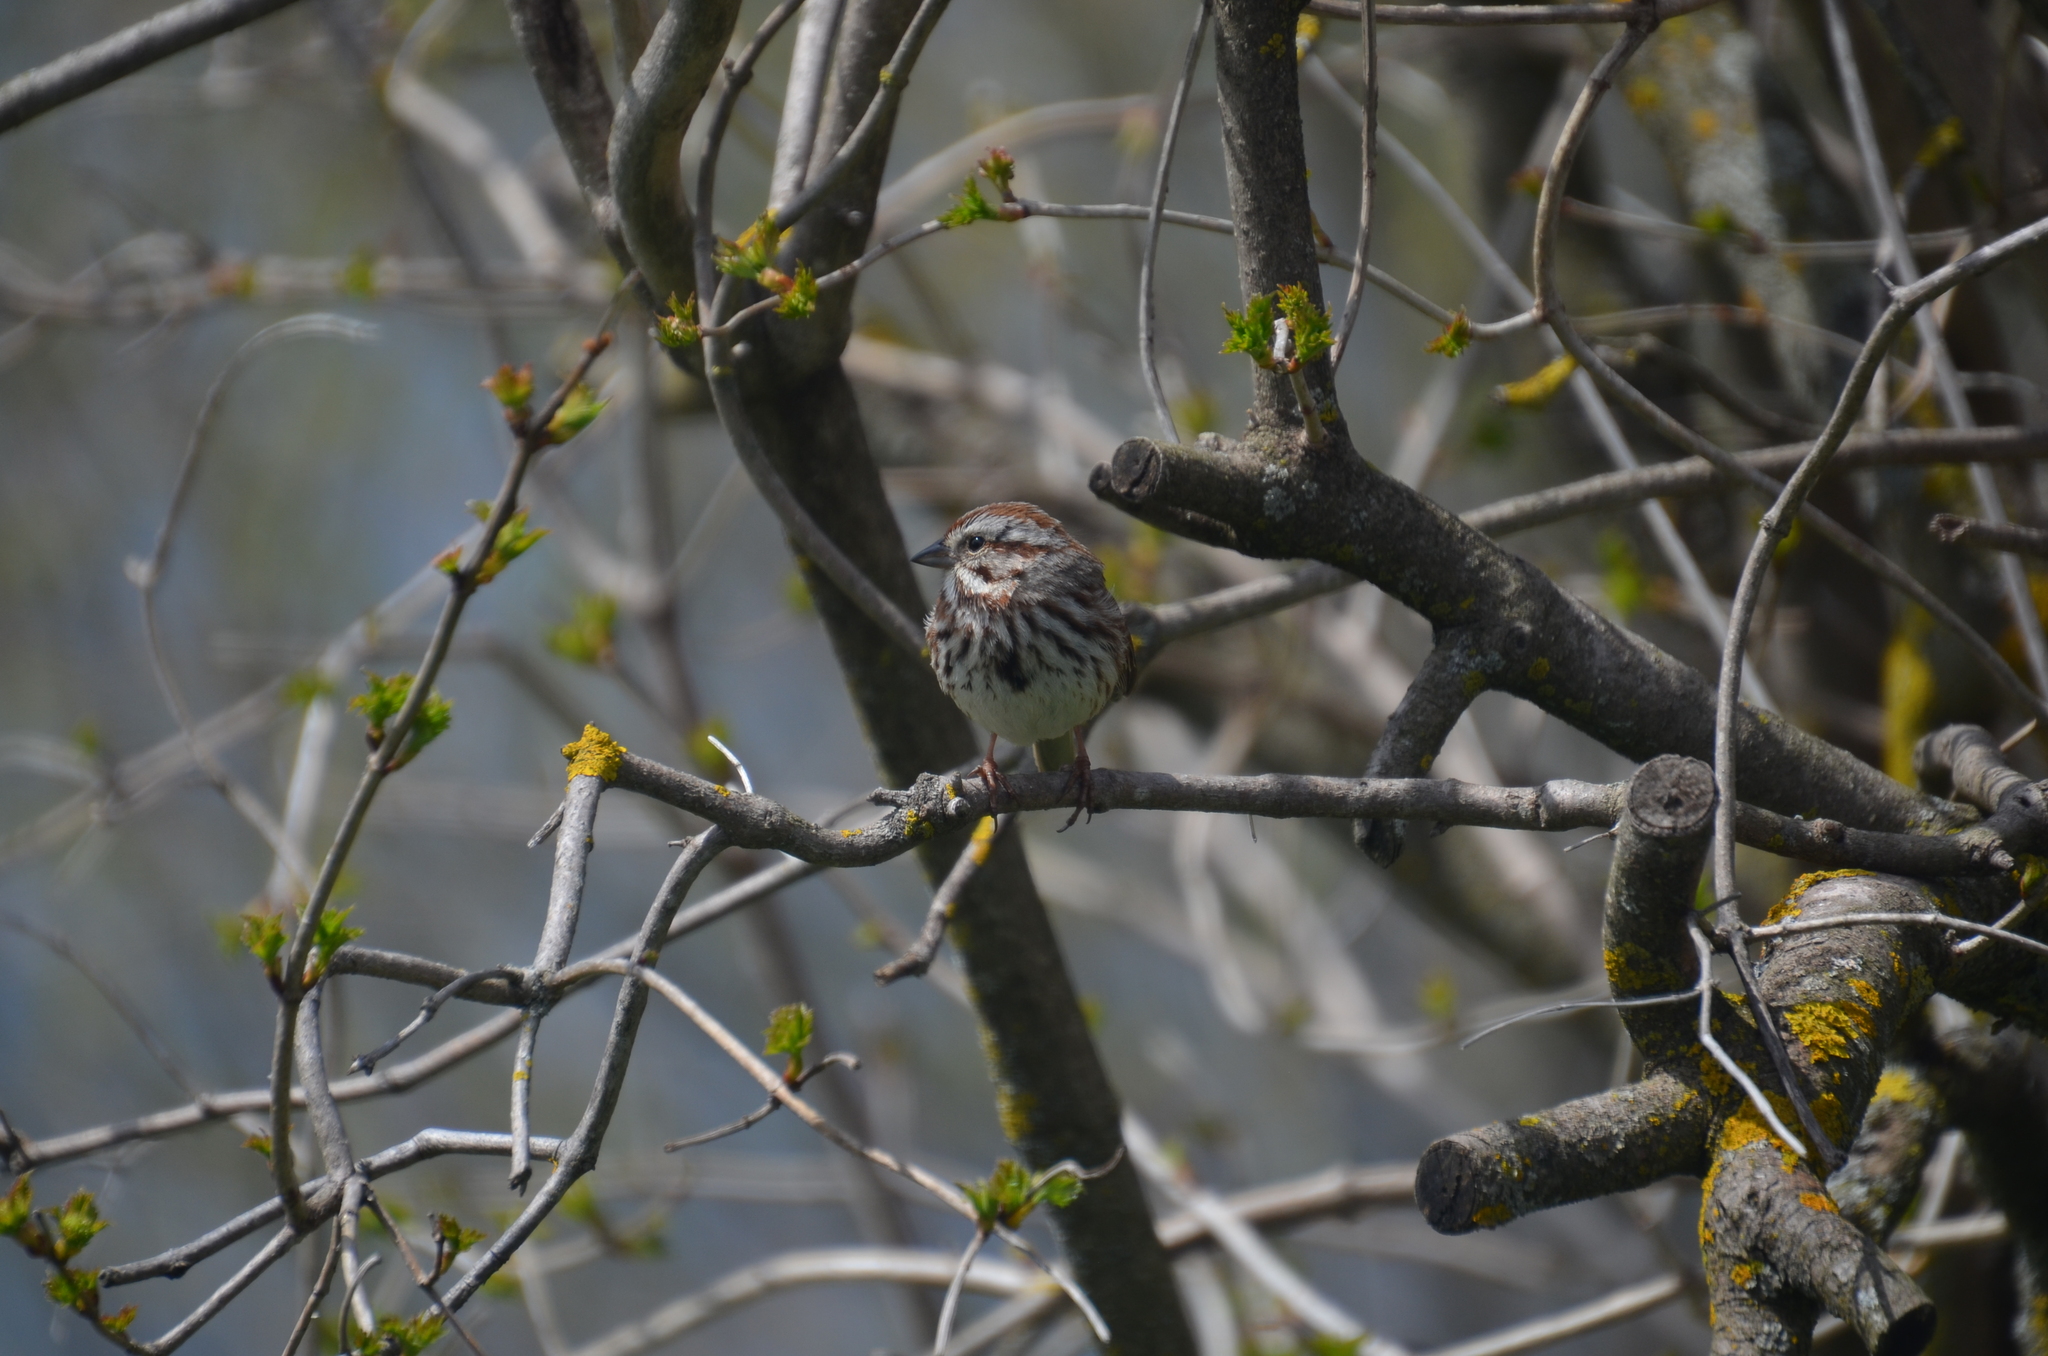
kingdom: Animalia
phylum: Chordata
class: Aves
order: Passeriformes
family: Passerellidae
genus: Melospiza
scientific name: Melospiza melodia
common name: Song sparrow
